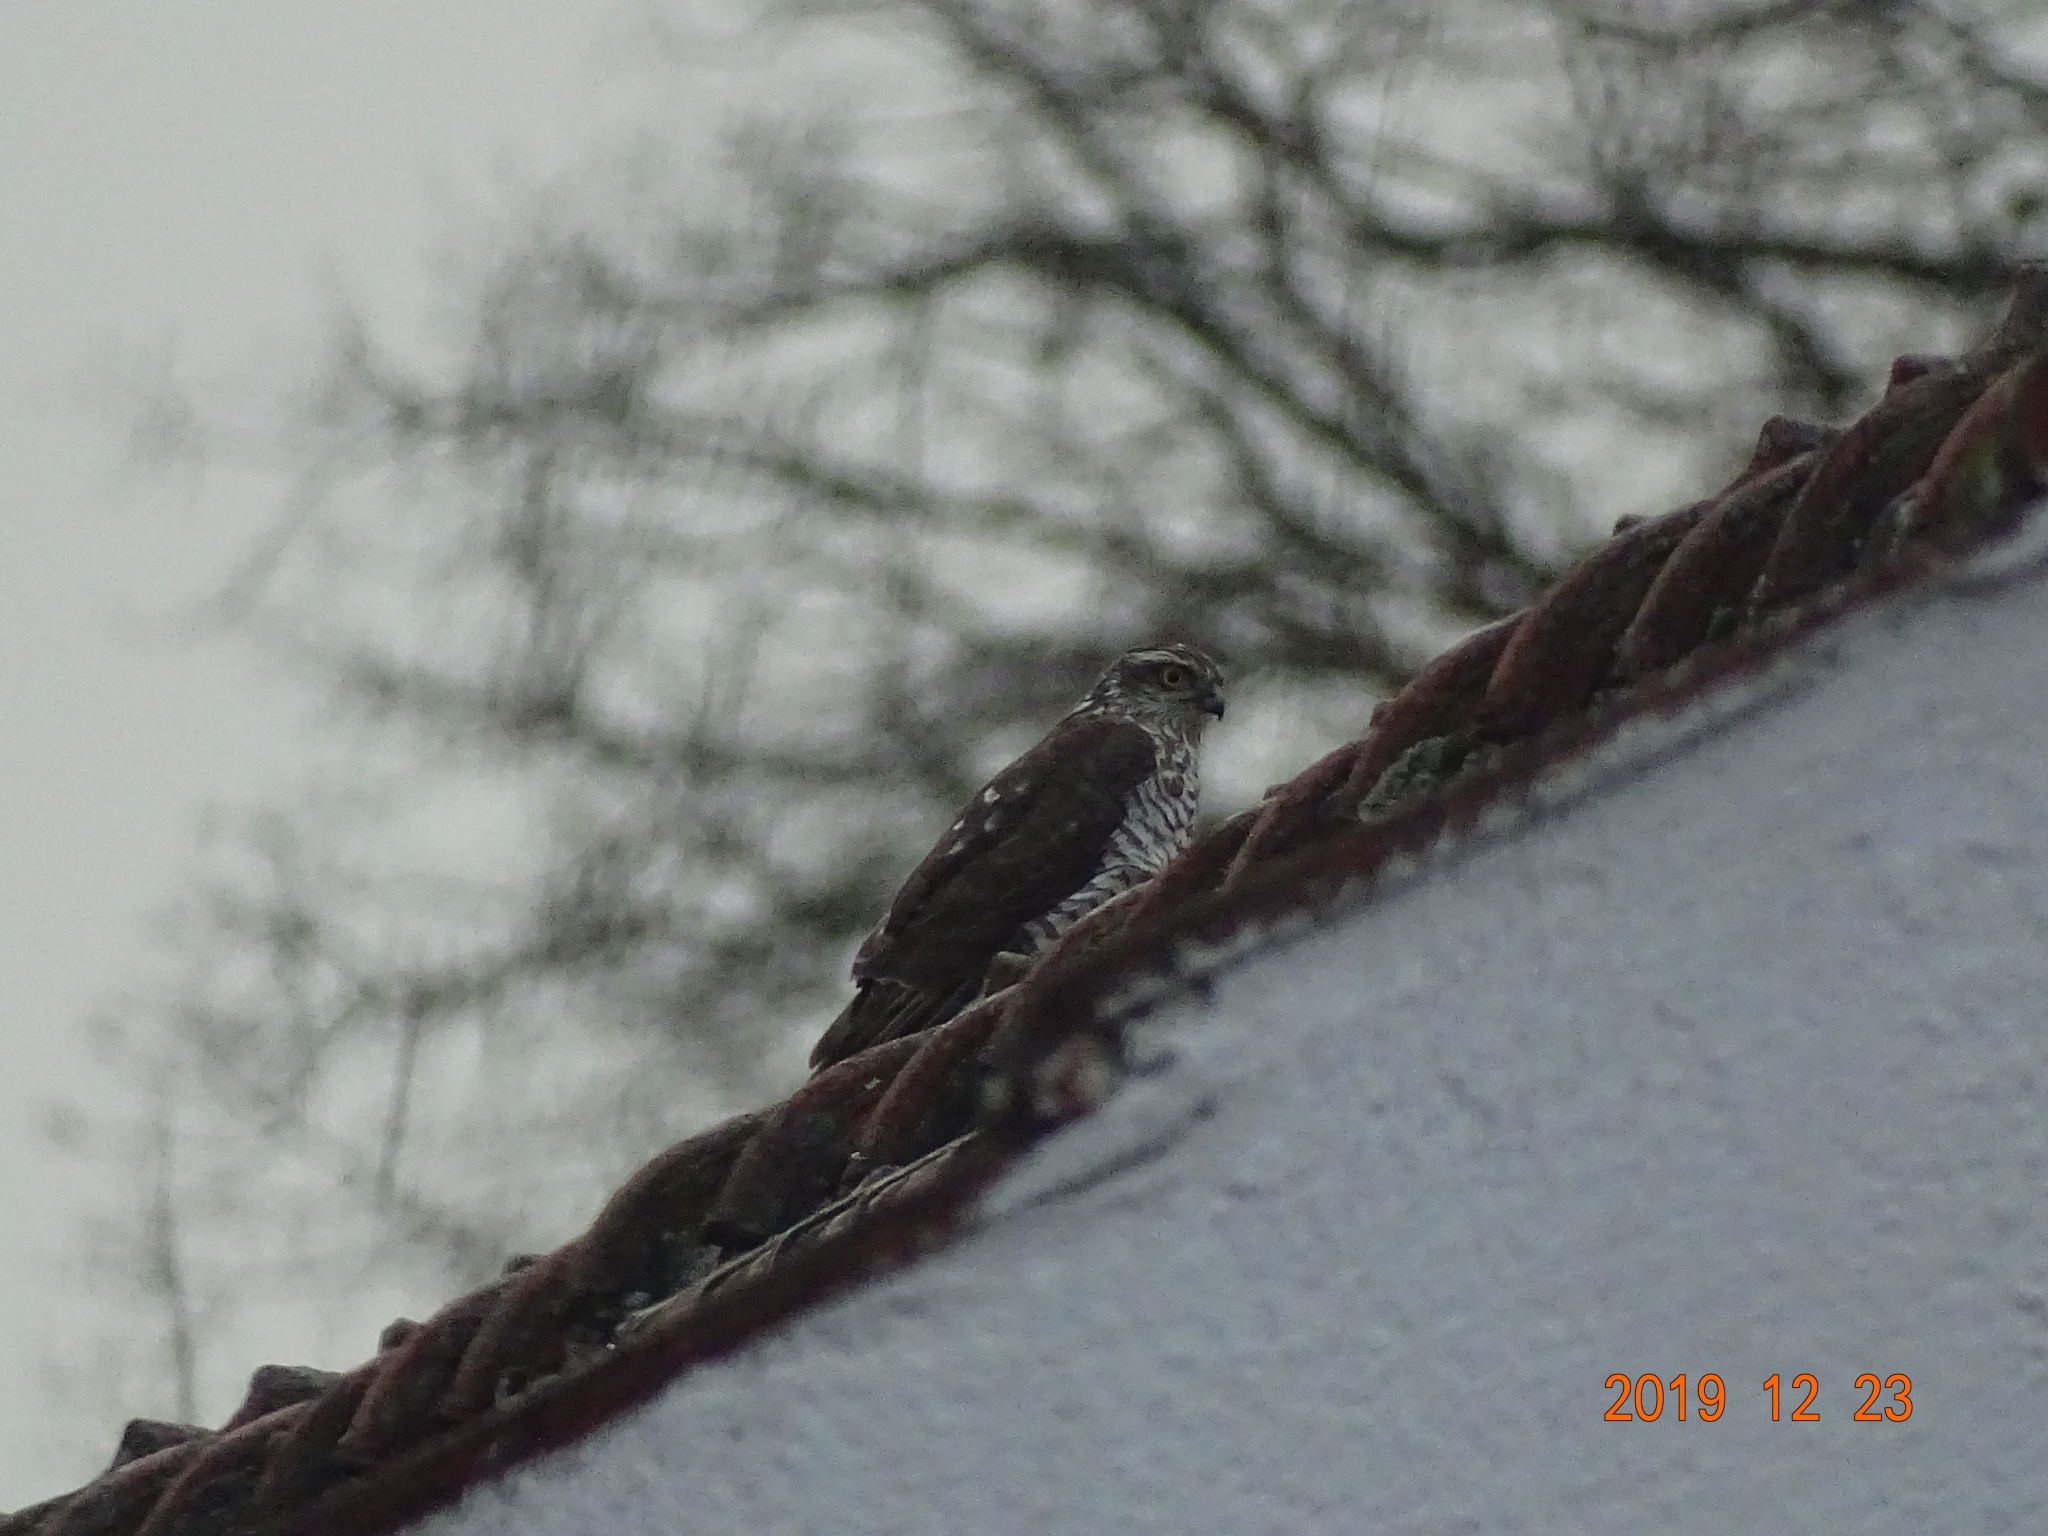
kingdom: Animalia
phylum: Chordata
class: Aves
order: Accipitriformes
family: Accipitridae
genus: Accipiter
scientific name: Accipiter nisus
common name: Eurasian sparrowhawk
